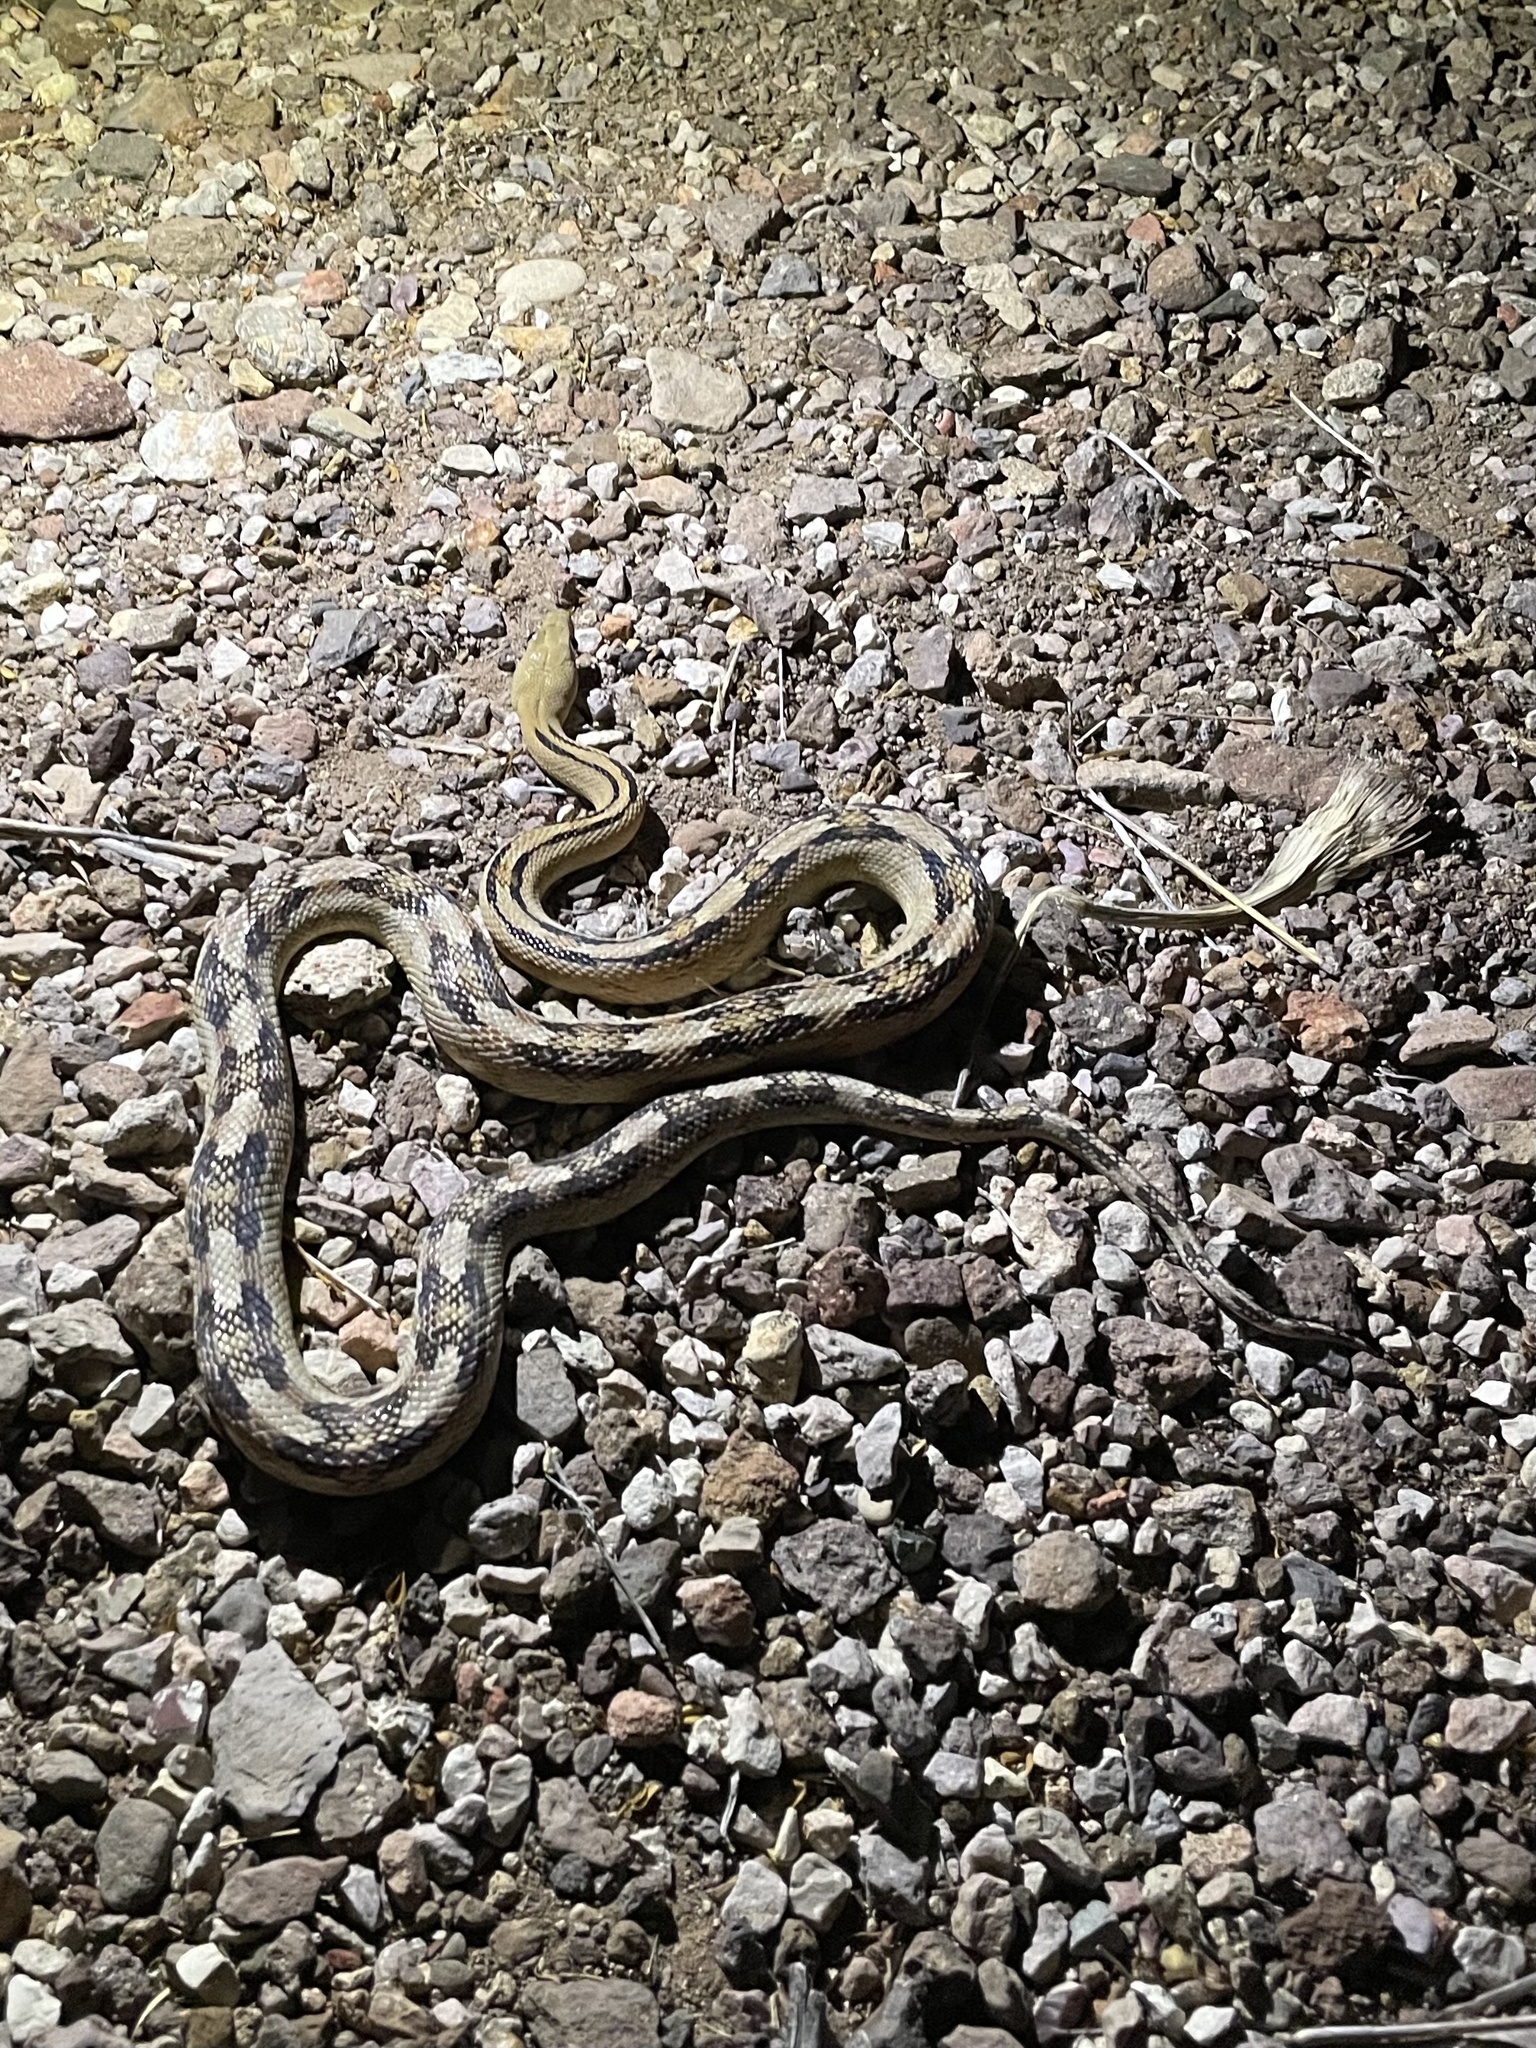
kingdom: Animalia
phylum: Chordata
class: Squamata
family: Colubridae
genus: Bogertophis
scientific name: Bogertophis subocularis
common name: Trans-pecos rat snake
